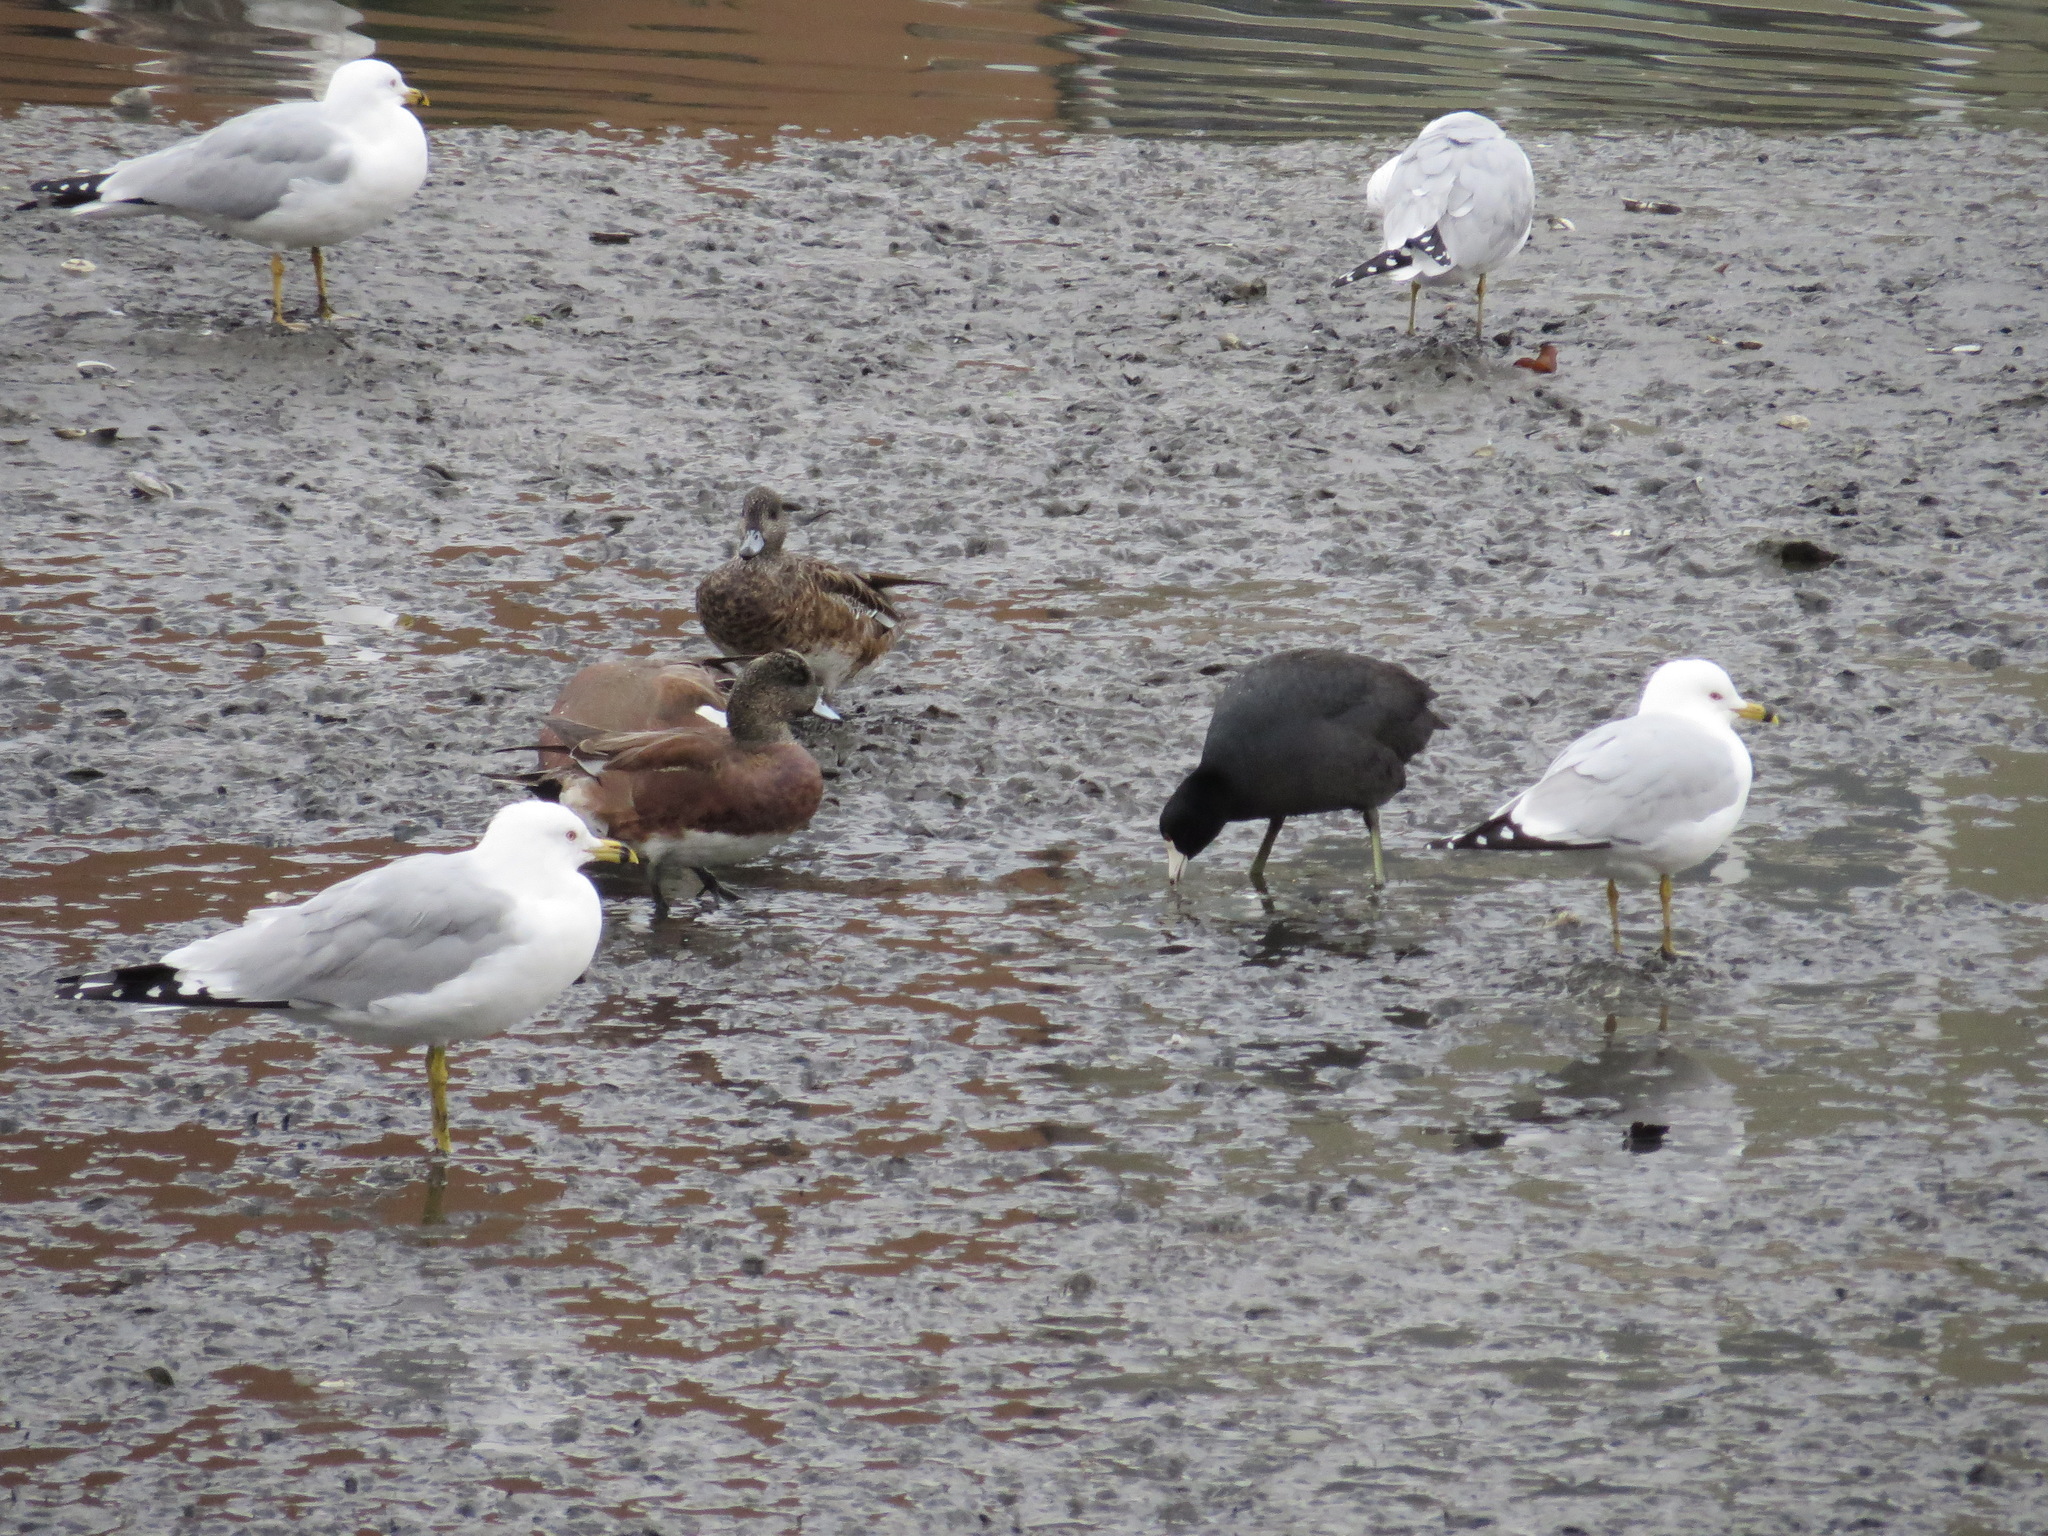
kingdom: Animalia
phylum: Chordata
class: Aves
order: Charadriiformes
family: Laridae
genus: Larus
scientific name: Larus delawarensis
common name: Ring-billed gull
